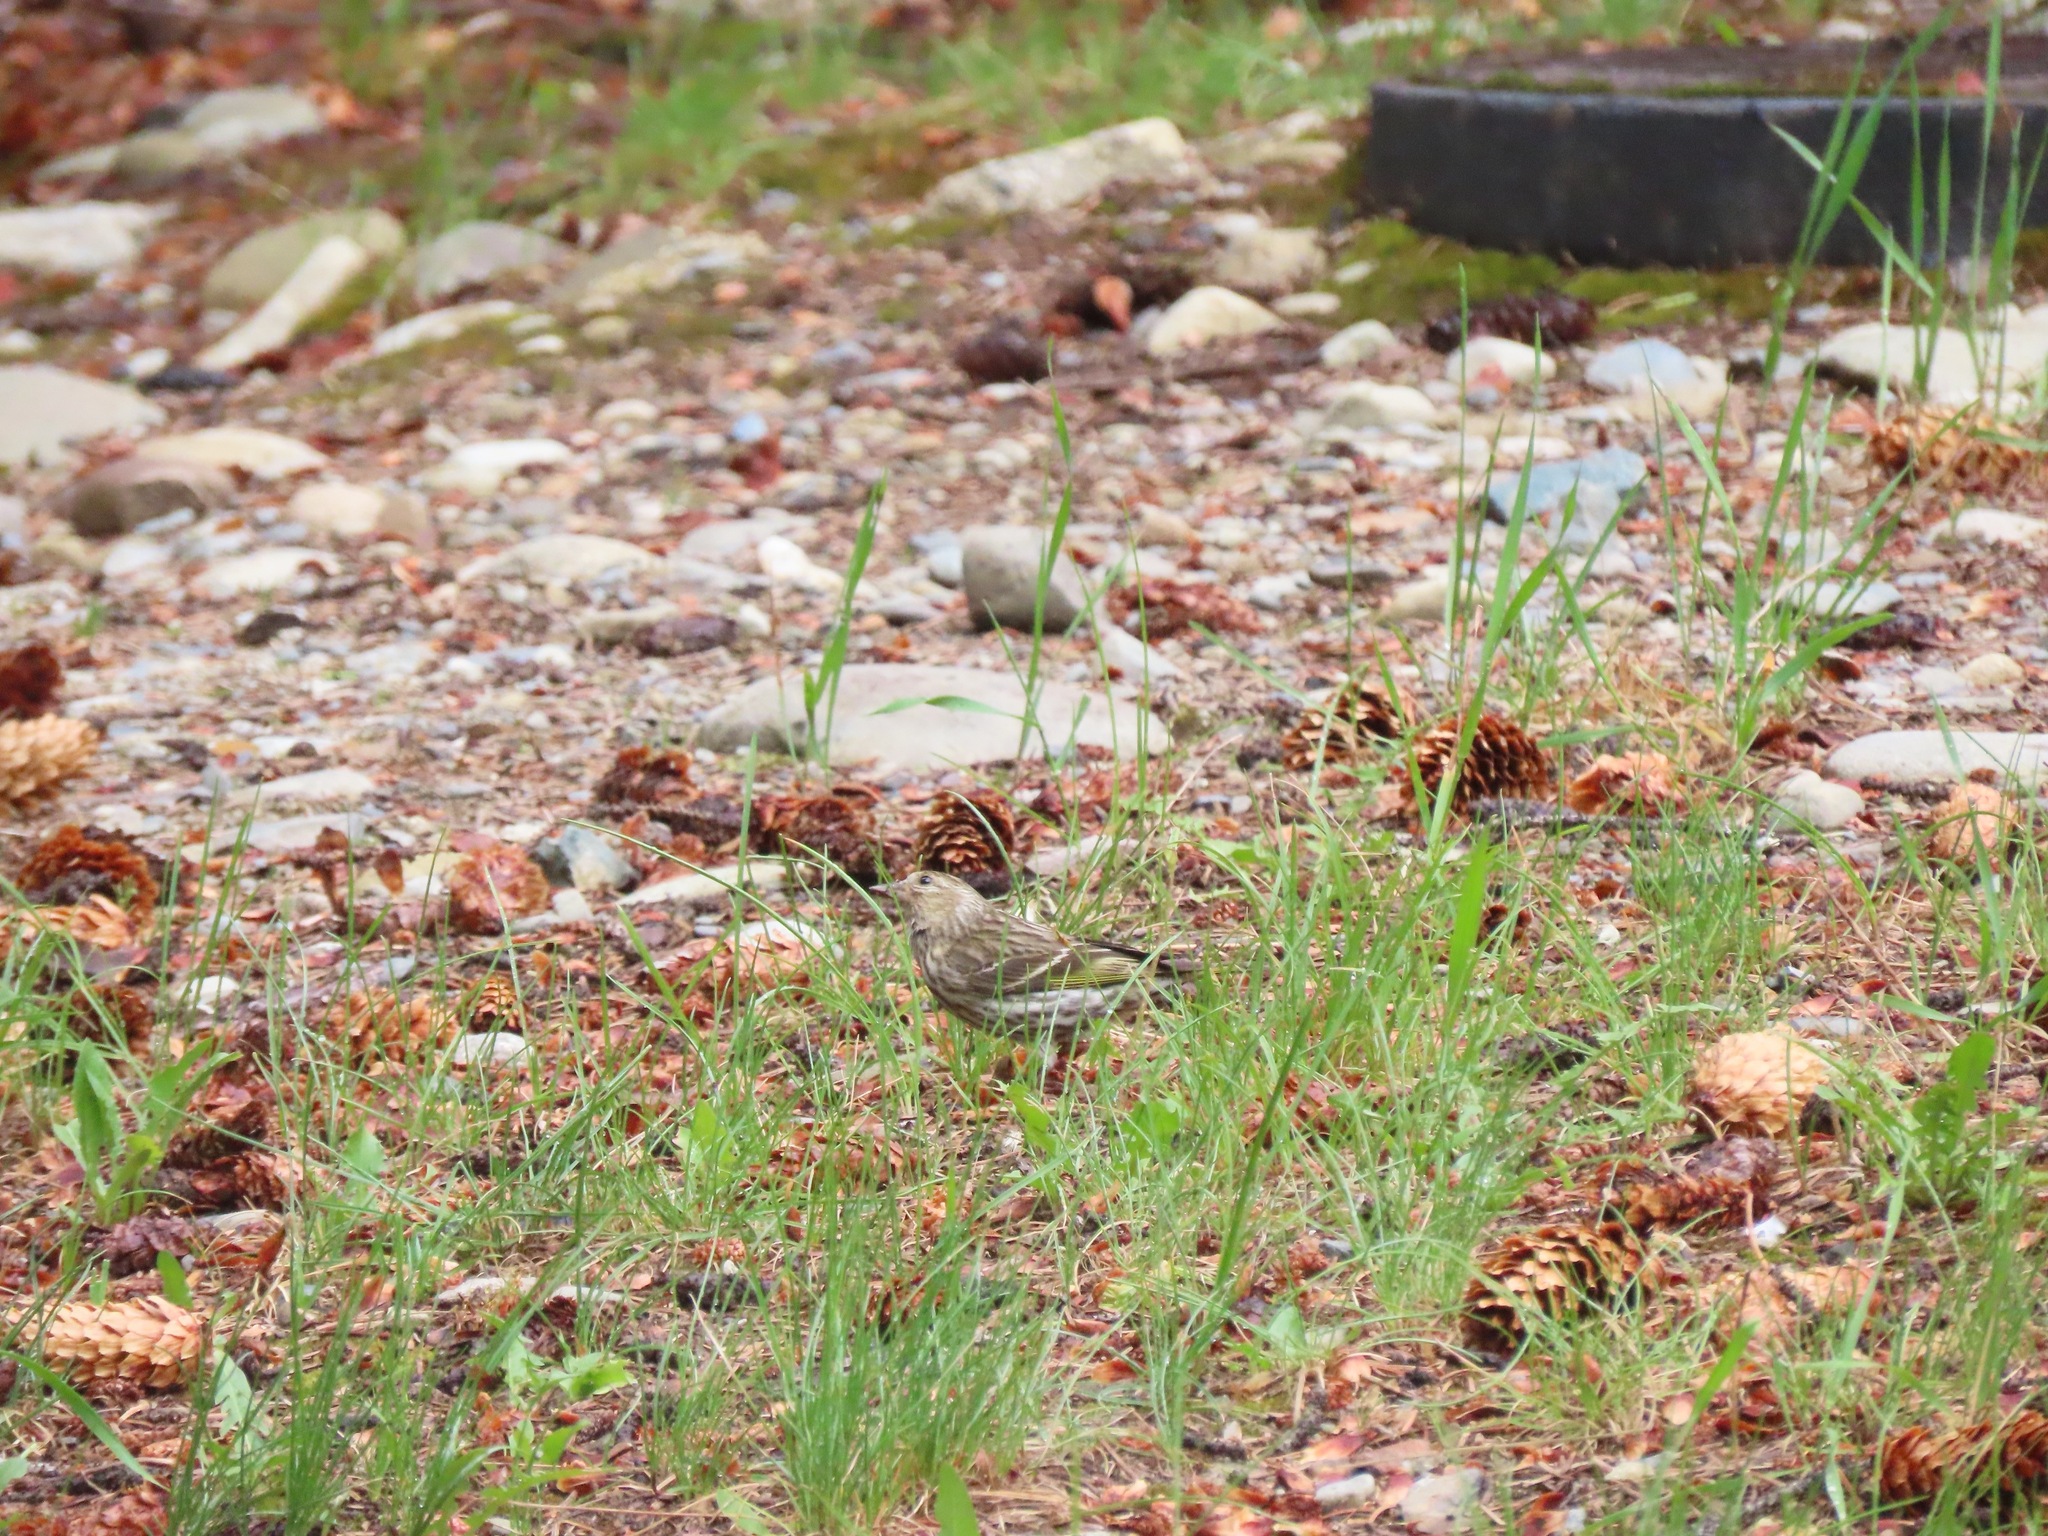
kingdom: Animalia
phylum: Chordata
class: Aves
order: Passeriformes
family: Fringillidae
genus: Spinus
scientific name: Spinus pinus
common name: Pine siskin
